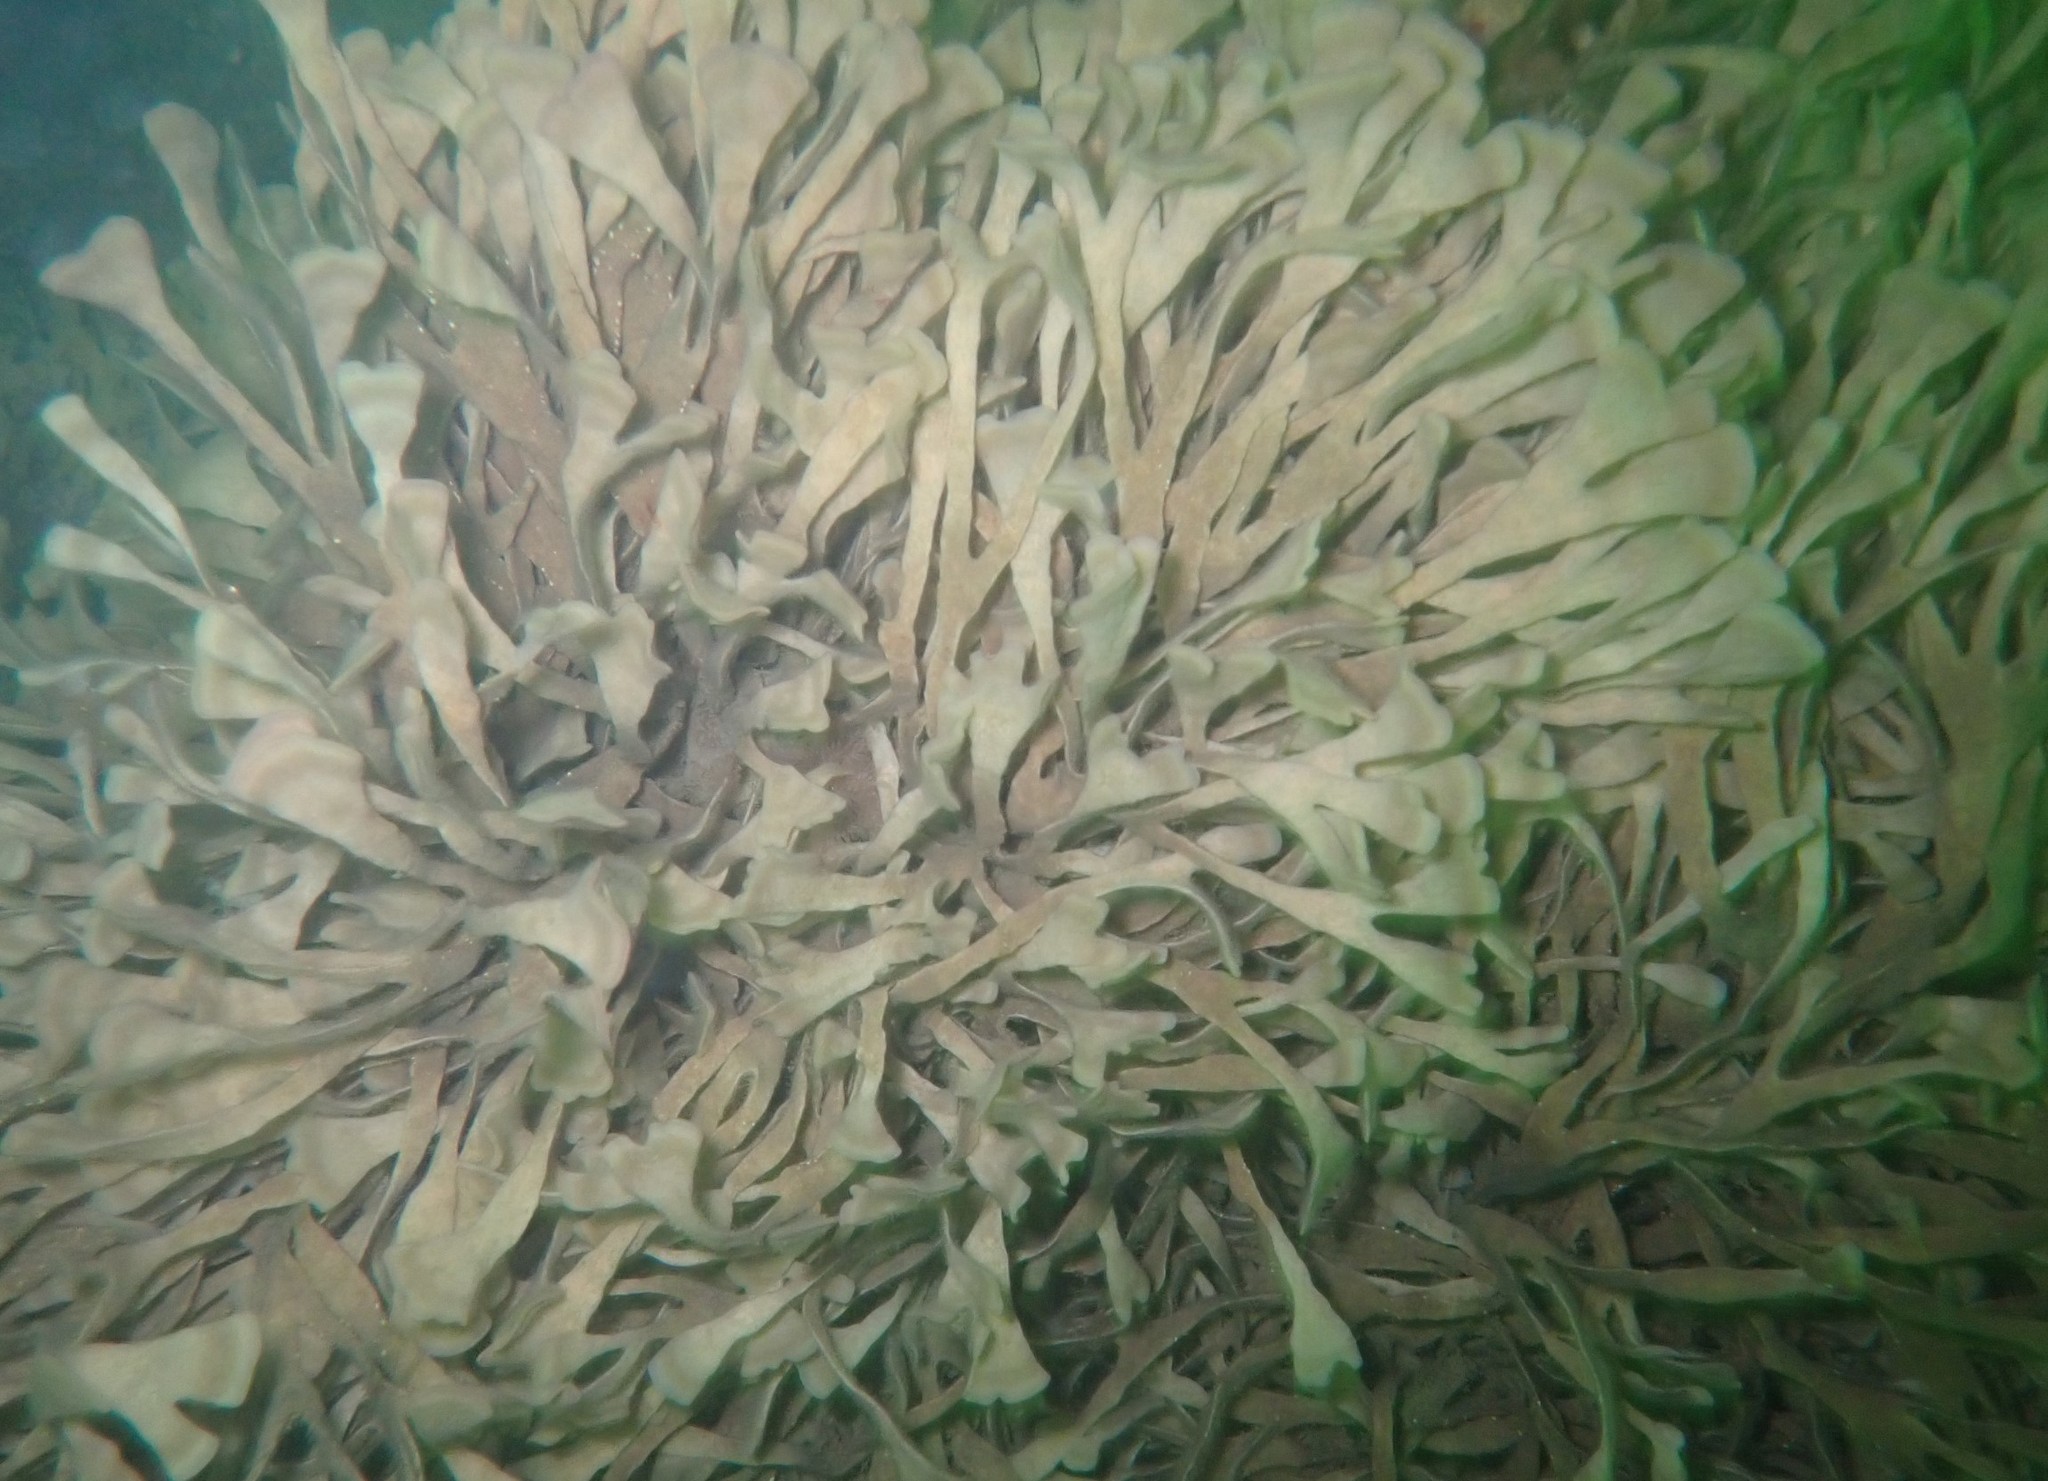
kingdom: Animalia
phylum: Bryozoa
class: Gymnolaemata
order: Cheilostomatida
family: Flustridae
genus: Flustra
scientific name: Flustra foliacea
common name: Hornwrack
